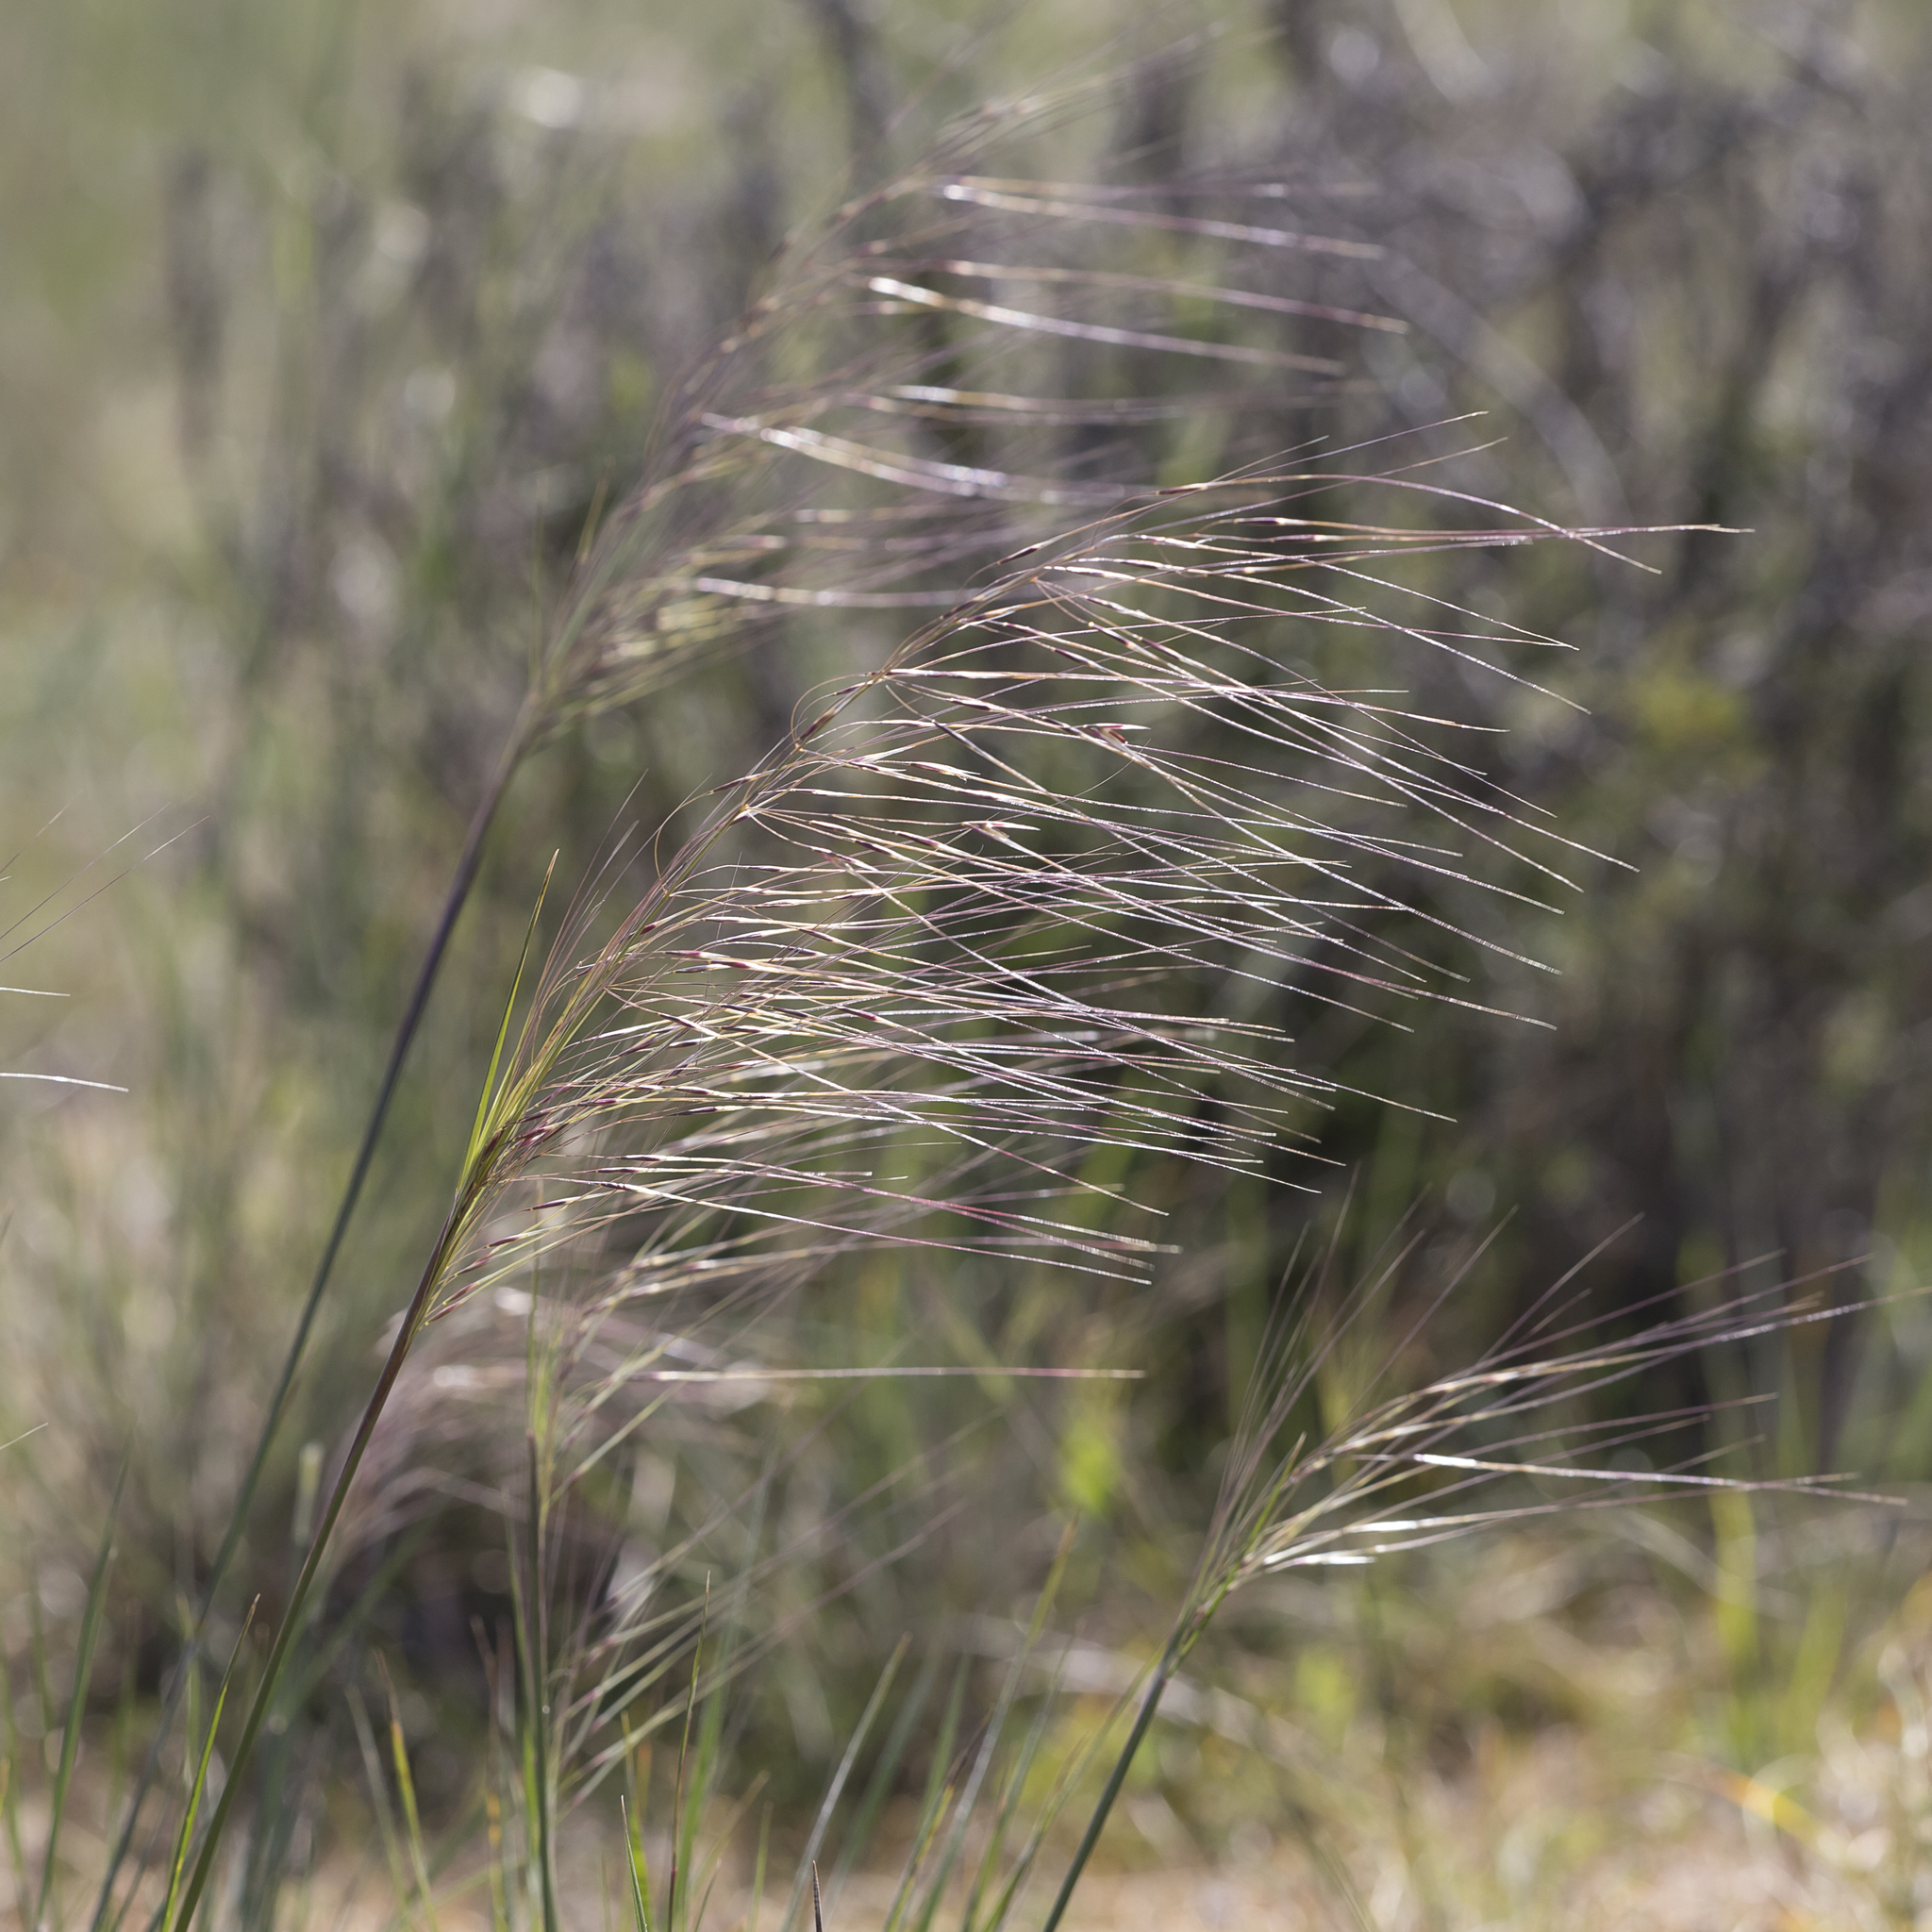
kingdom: Plantae
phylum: Tracheophyta
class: Liliopsida
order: Poales
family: Poaceae
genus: Austrostipa
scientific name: Austrostipa nodosa
